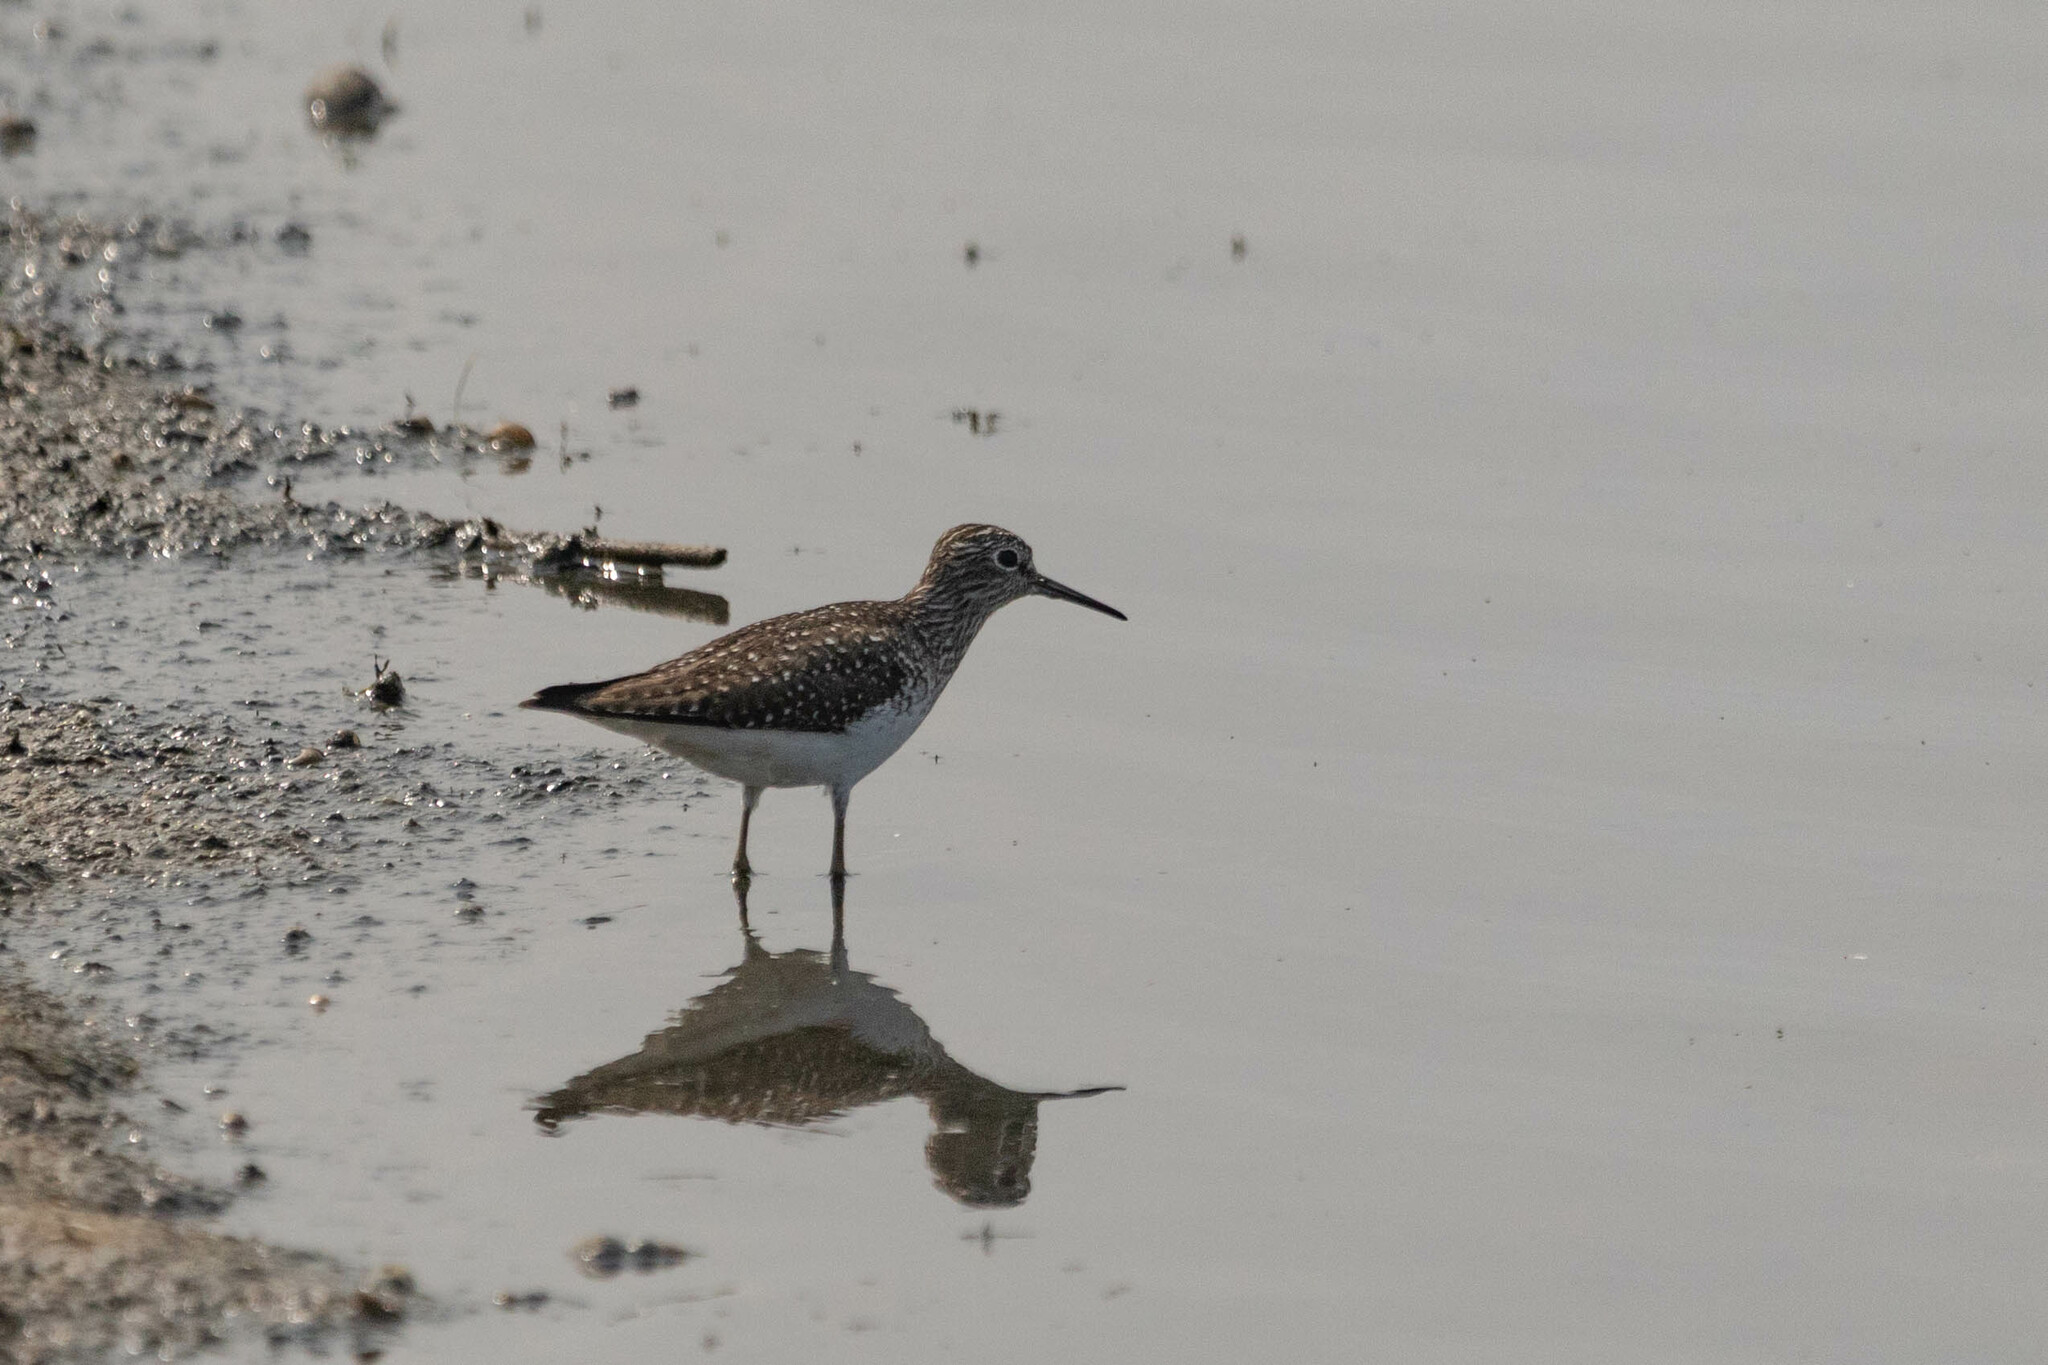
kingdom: Animalia
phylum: Chordata
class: Aves
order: Charadriiformes
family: Scolopacidae
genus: Tringa
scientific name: Tringa solitaria
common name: Solitary sandpiper
